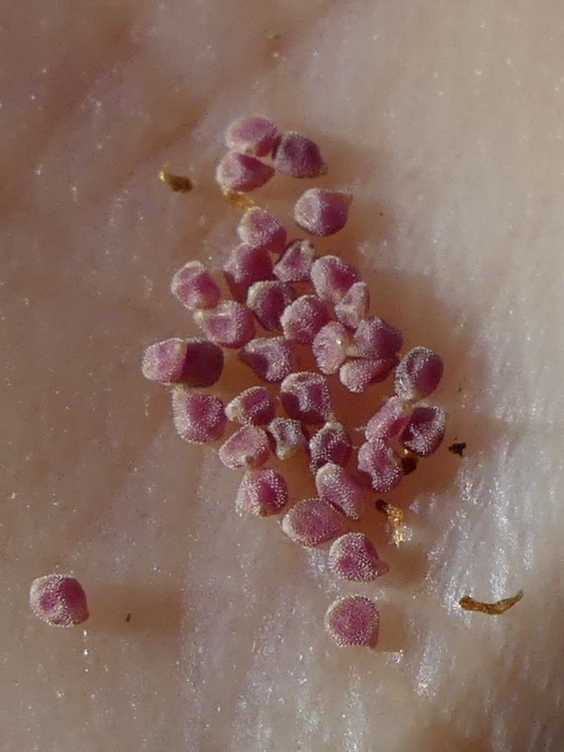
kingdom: Plantae
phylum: Tracheophyta
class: Magnoliopsida
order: Malvales
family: Cistaceae
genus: Helianthemum
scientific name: Helianthemum salicifolium
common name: Willowleaf frostweed
